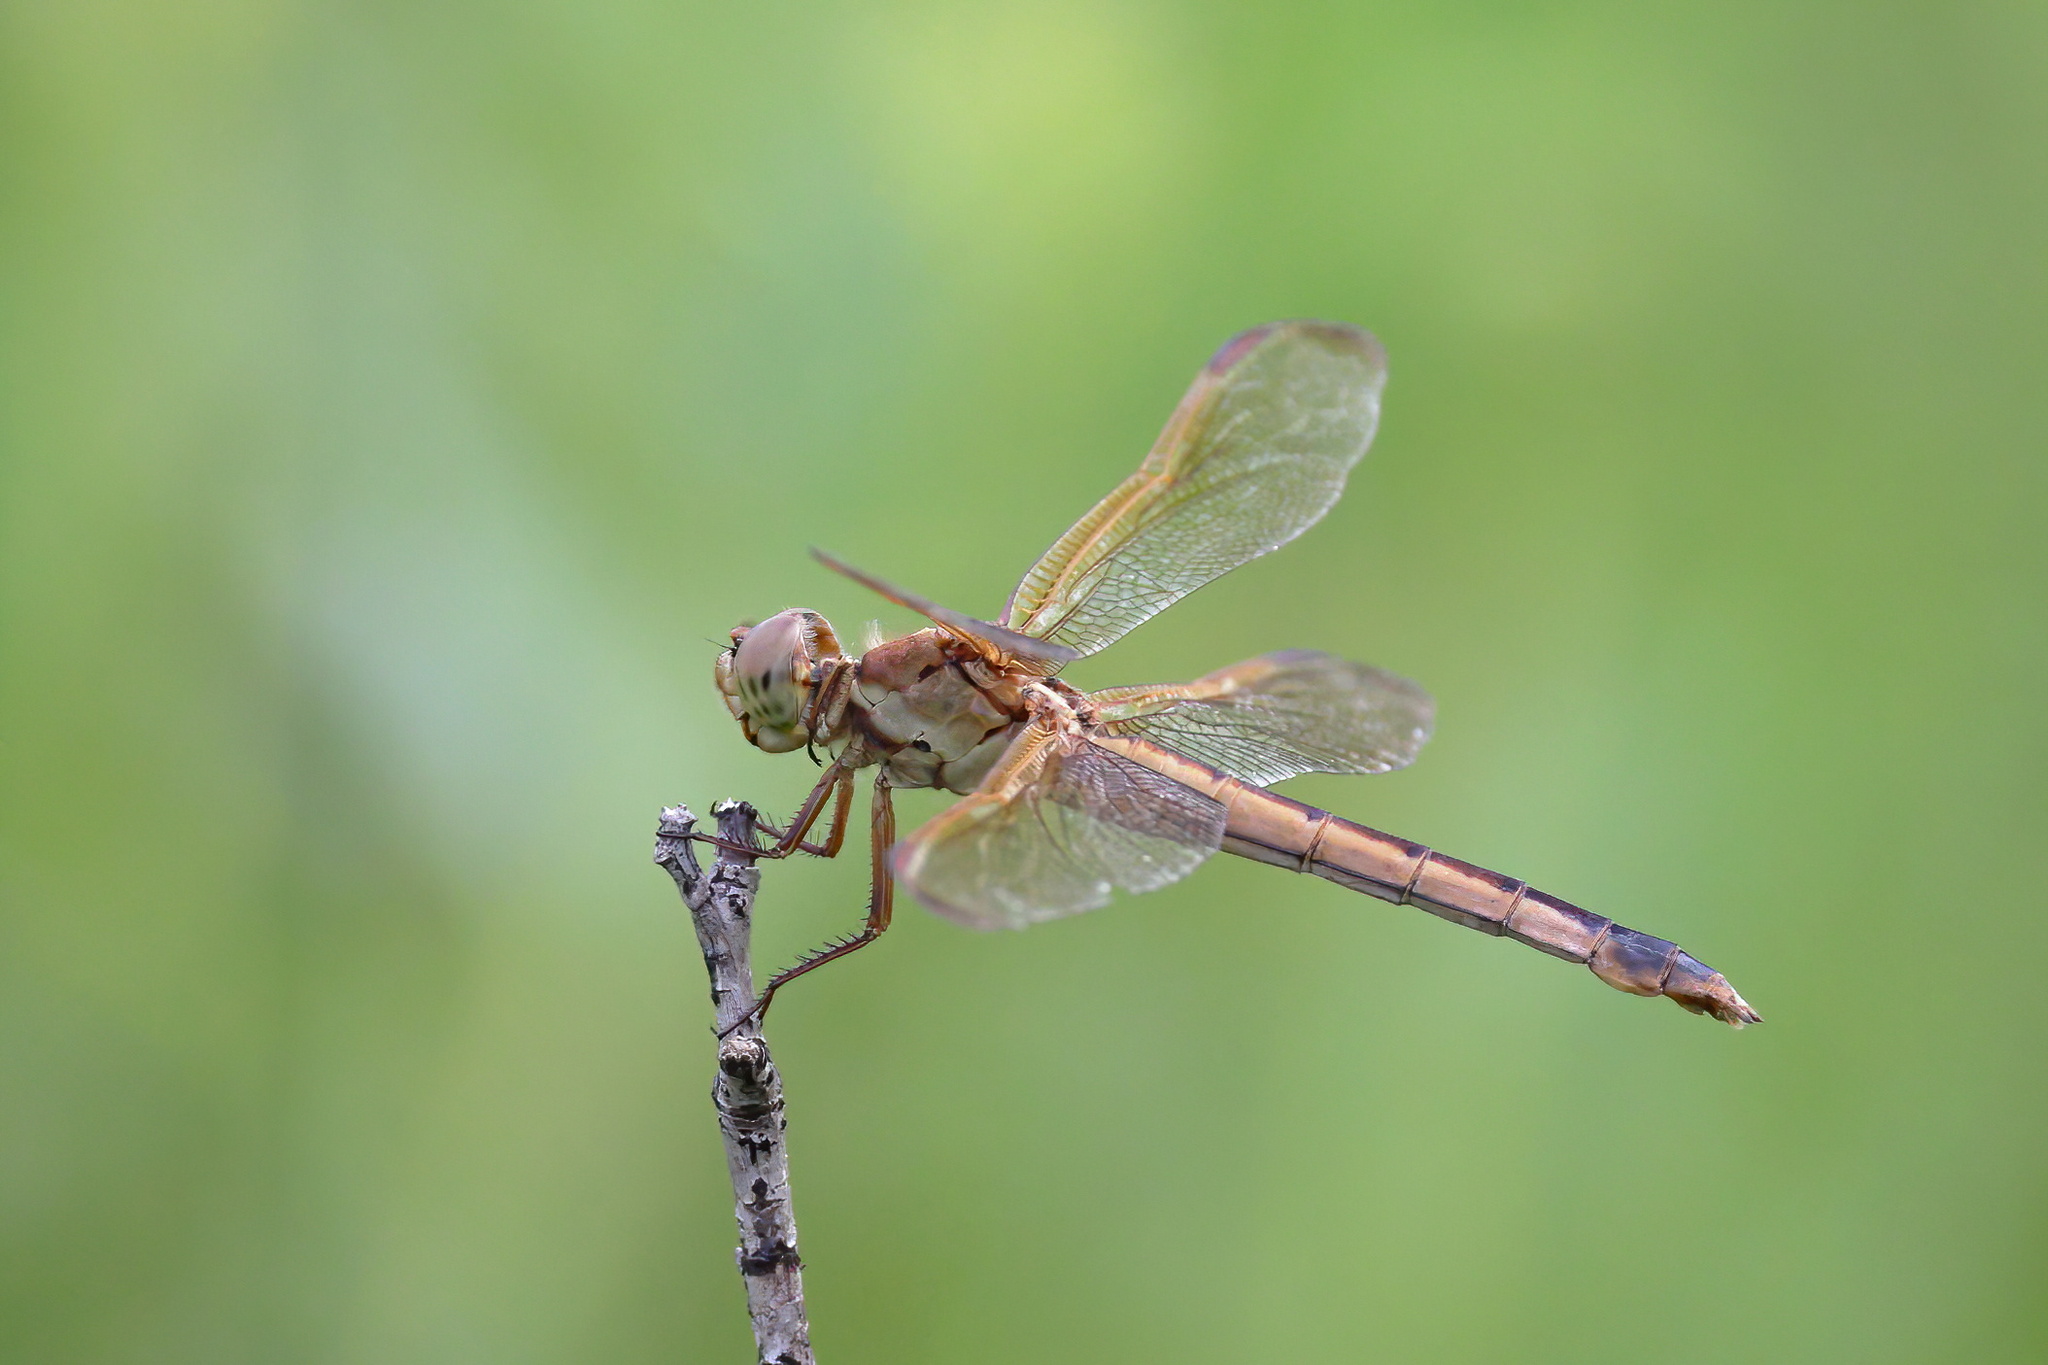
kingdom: Animalia
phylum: Arthropoda
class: Insecta
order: Odonata
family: Libellulidae
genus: Libellula
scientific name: Libellula needhami
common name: Needham's skimmer
